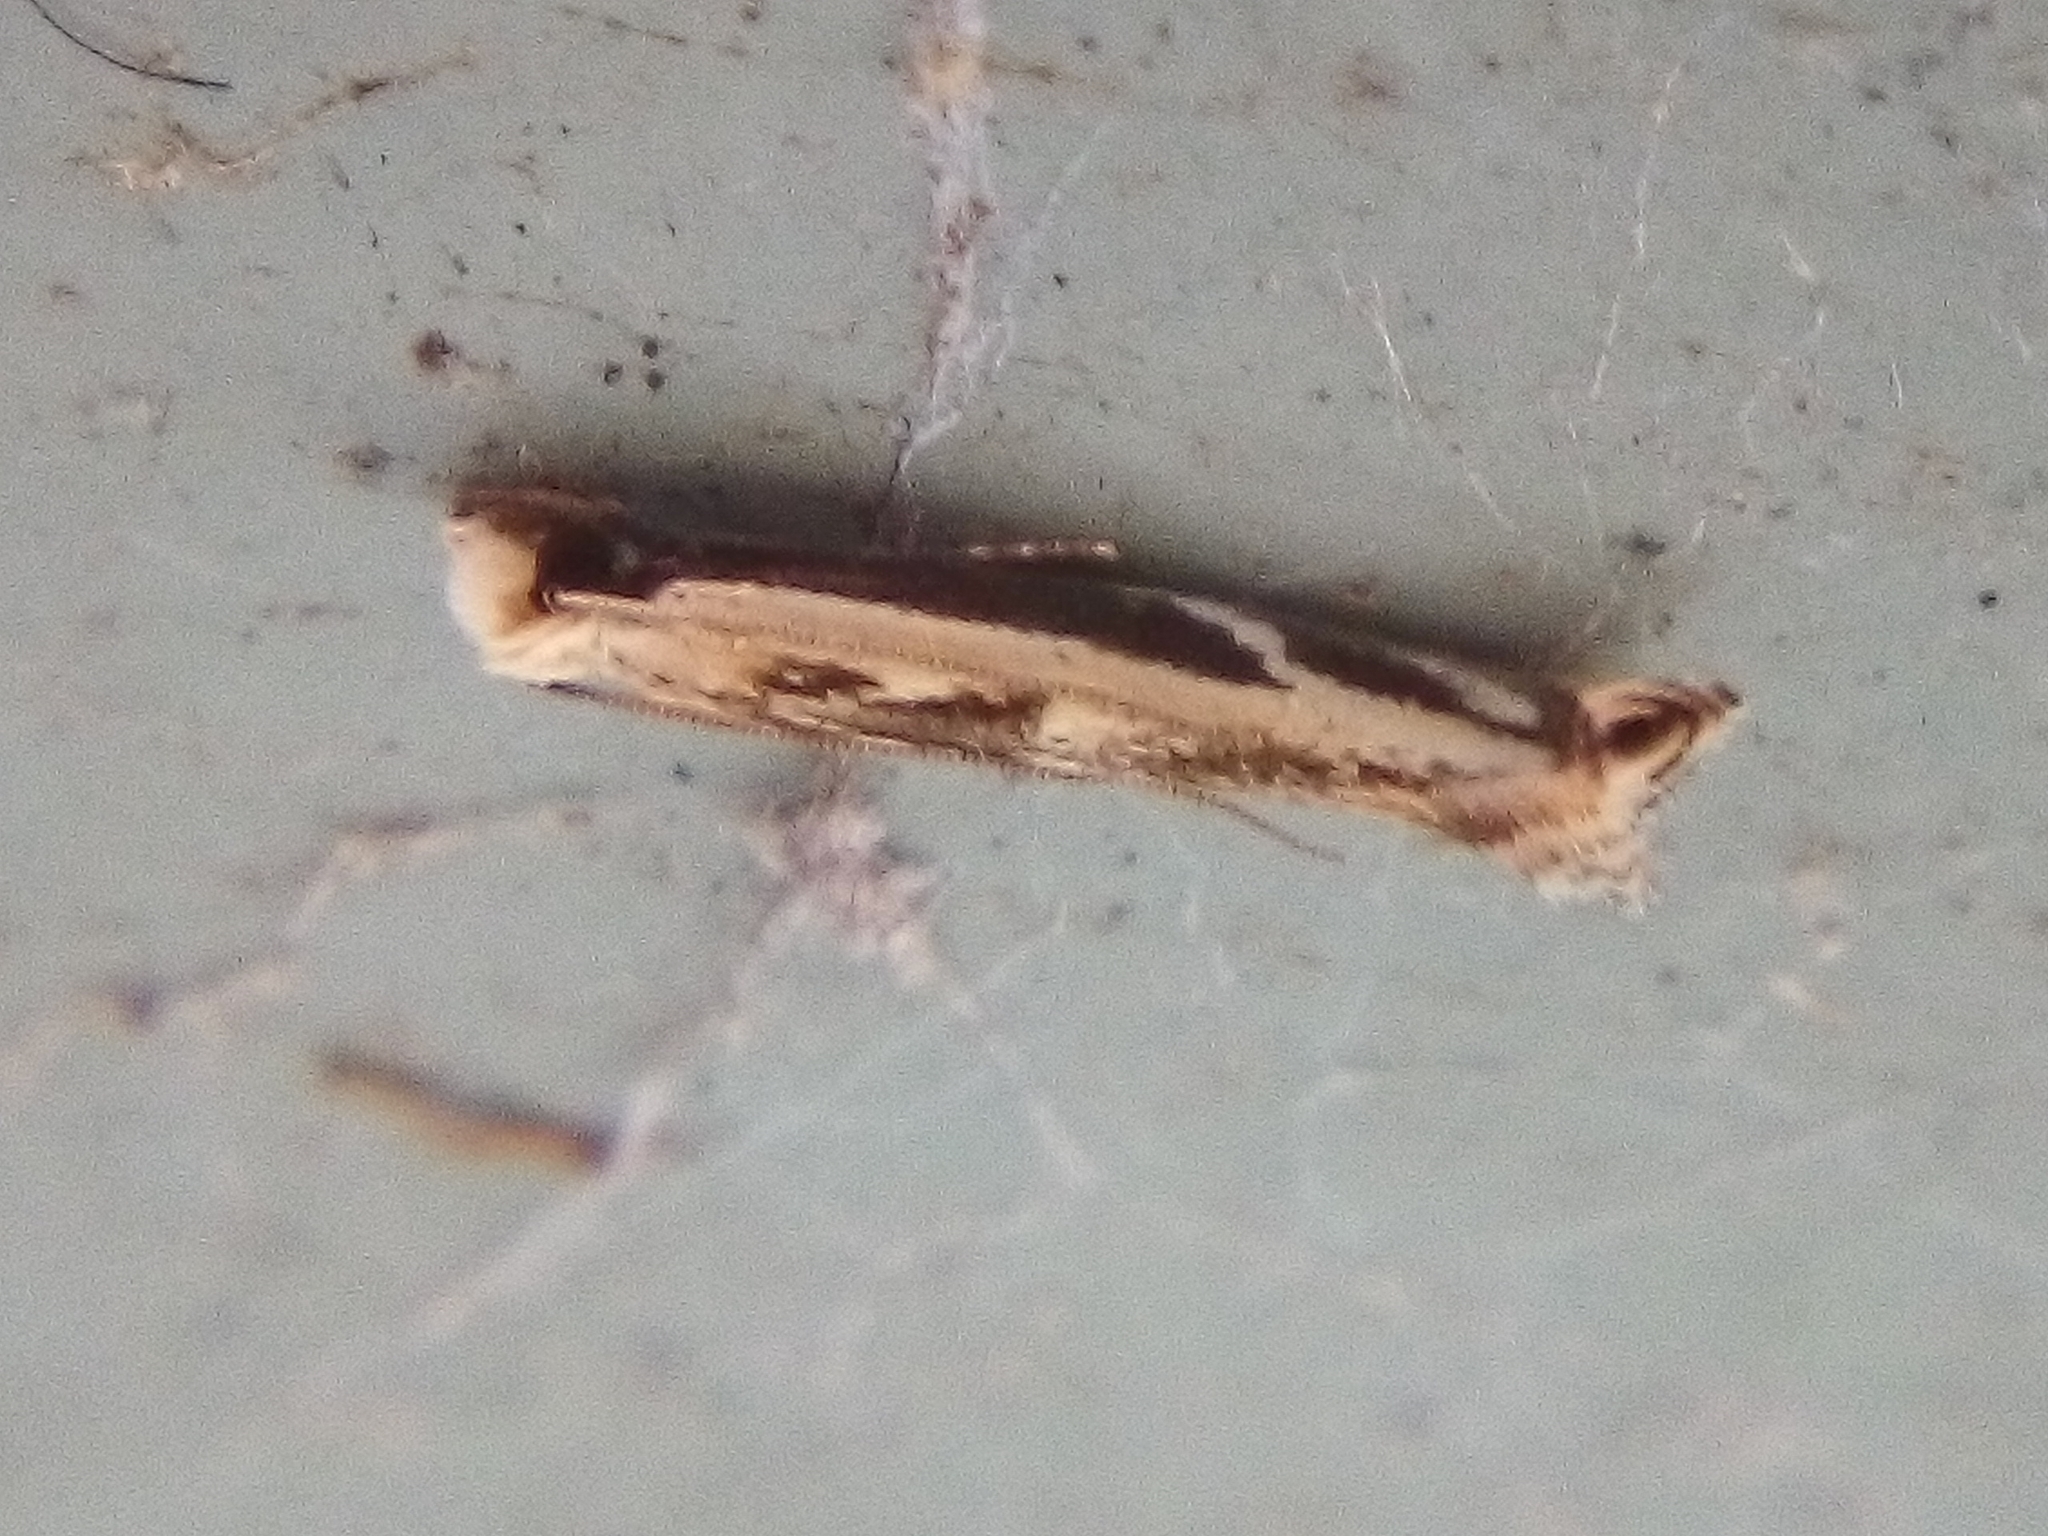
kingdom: Animalia
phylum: Arthropoda
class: Insecta
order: Lepidoptera
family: Tineidae
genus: Erechthias
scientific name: Erechthias terminella
